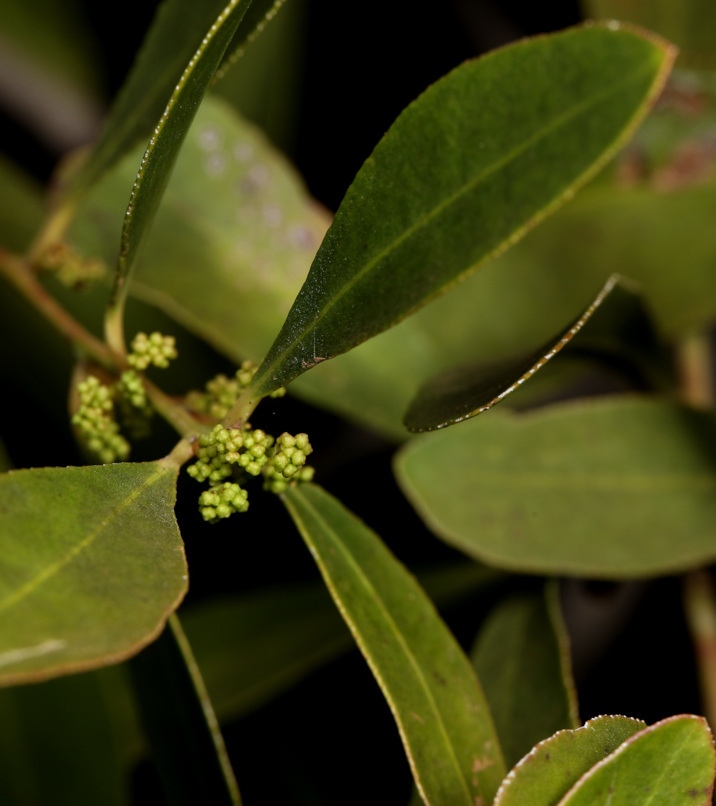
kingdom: Plantae
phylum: Tracheophyta
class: Magnoliopsida
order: Celastrales
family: Celastraceae
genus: Gymnosporia
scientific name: Gymnosporia senegalensis
